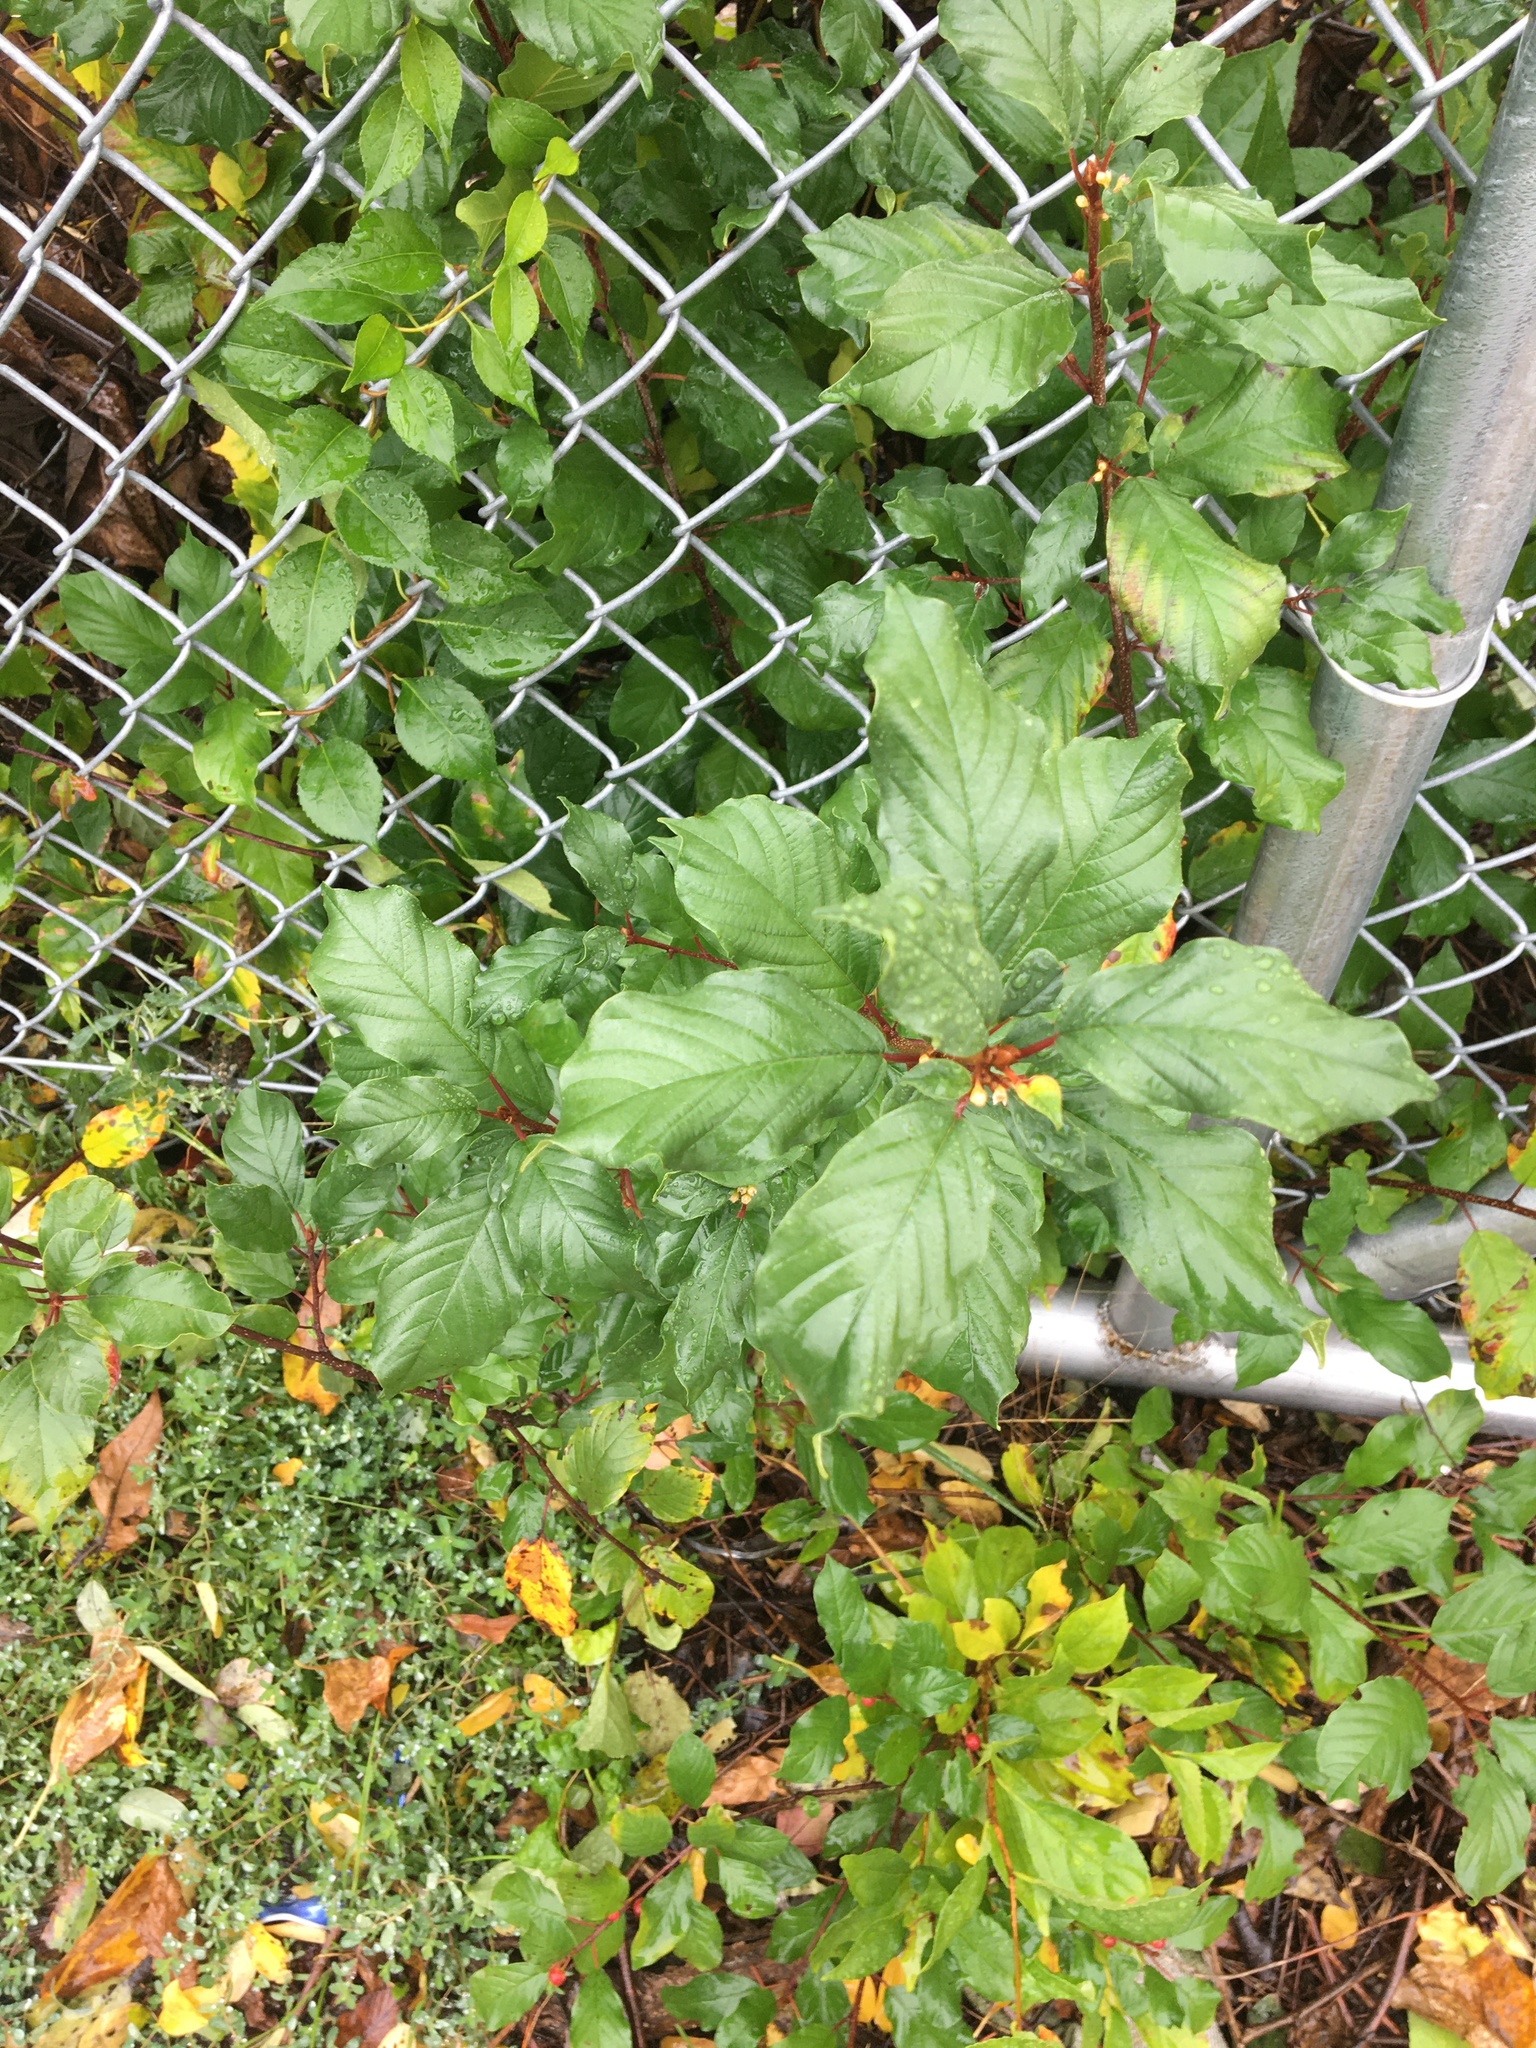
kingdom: Plantae
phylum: Tracheophyta
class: Magnoliopsida
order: Rosales
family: Rhamnaceae
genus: Frangula
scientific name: Frangula alnus
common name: Alder buckthorn
